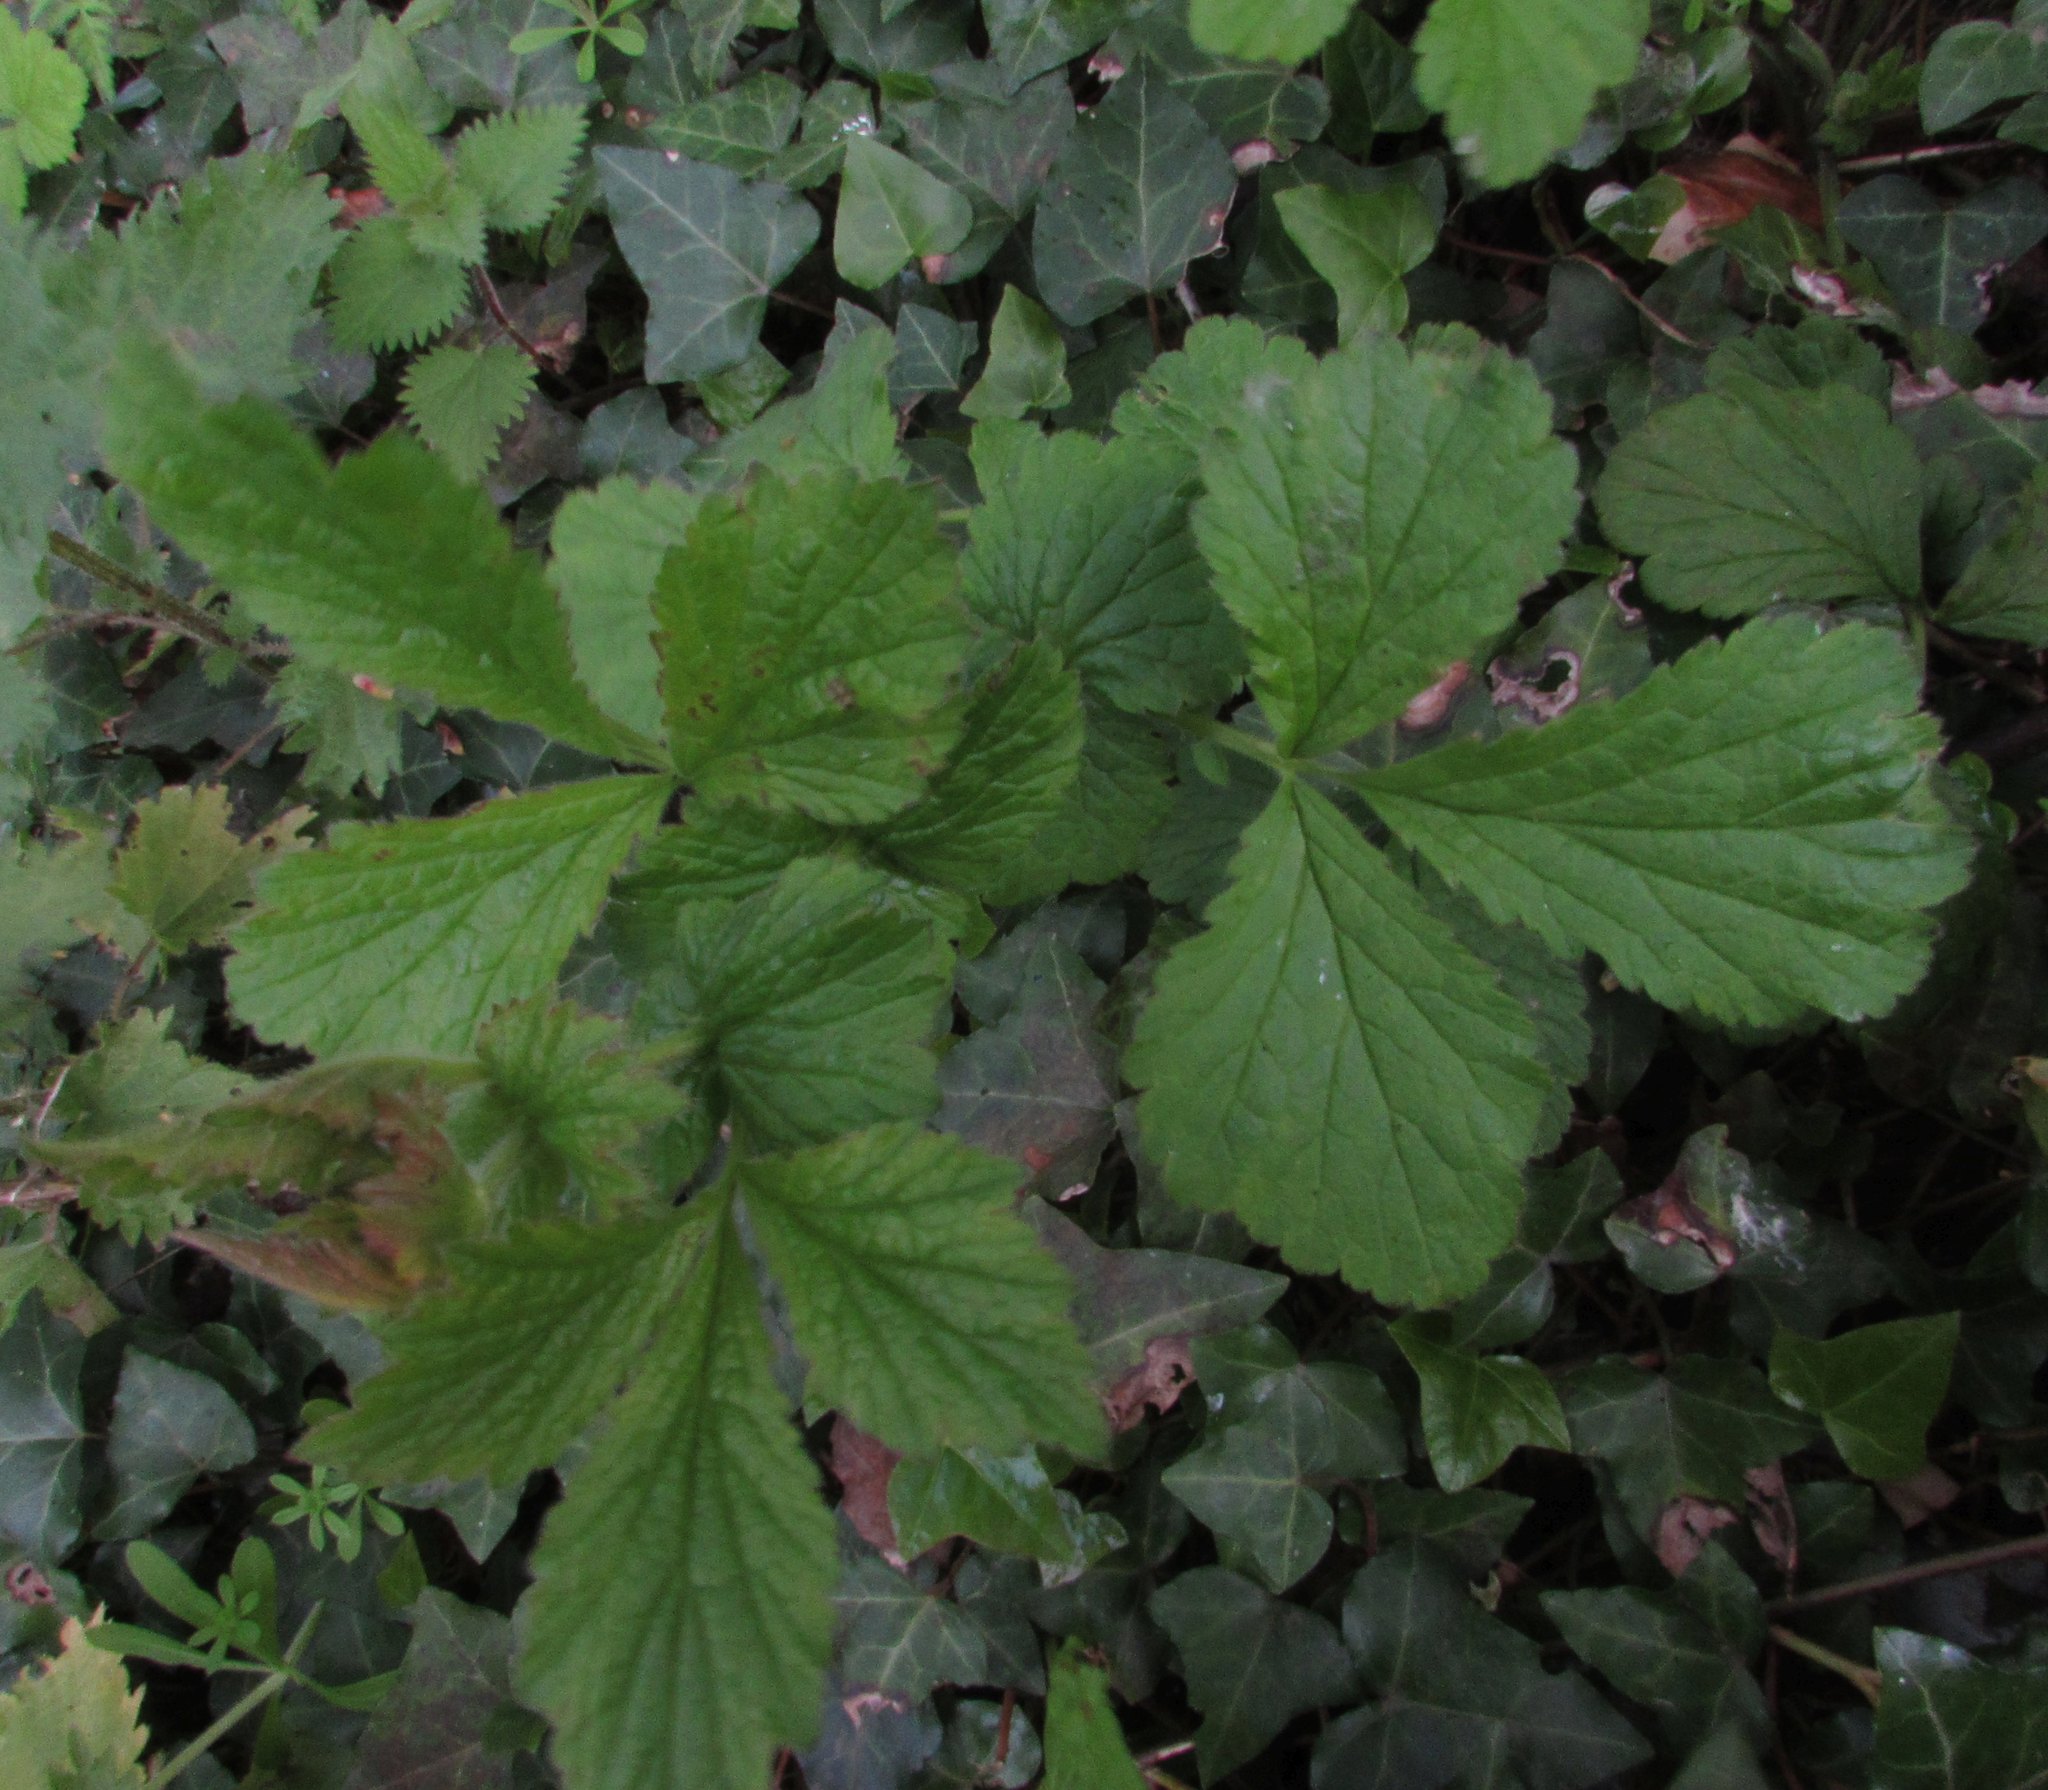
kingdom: Plantae
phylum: Tracheophyta
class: Magnoliopsida
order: Rosales
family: Rosaceae
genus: Geum
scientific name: Geum urbanum
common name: Wood avens
